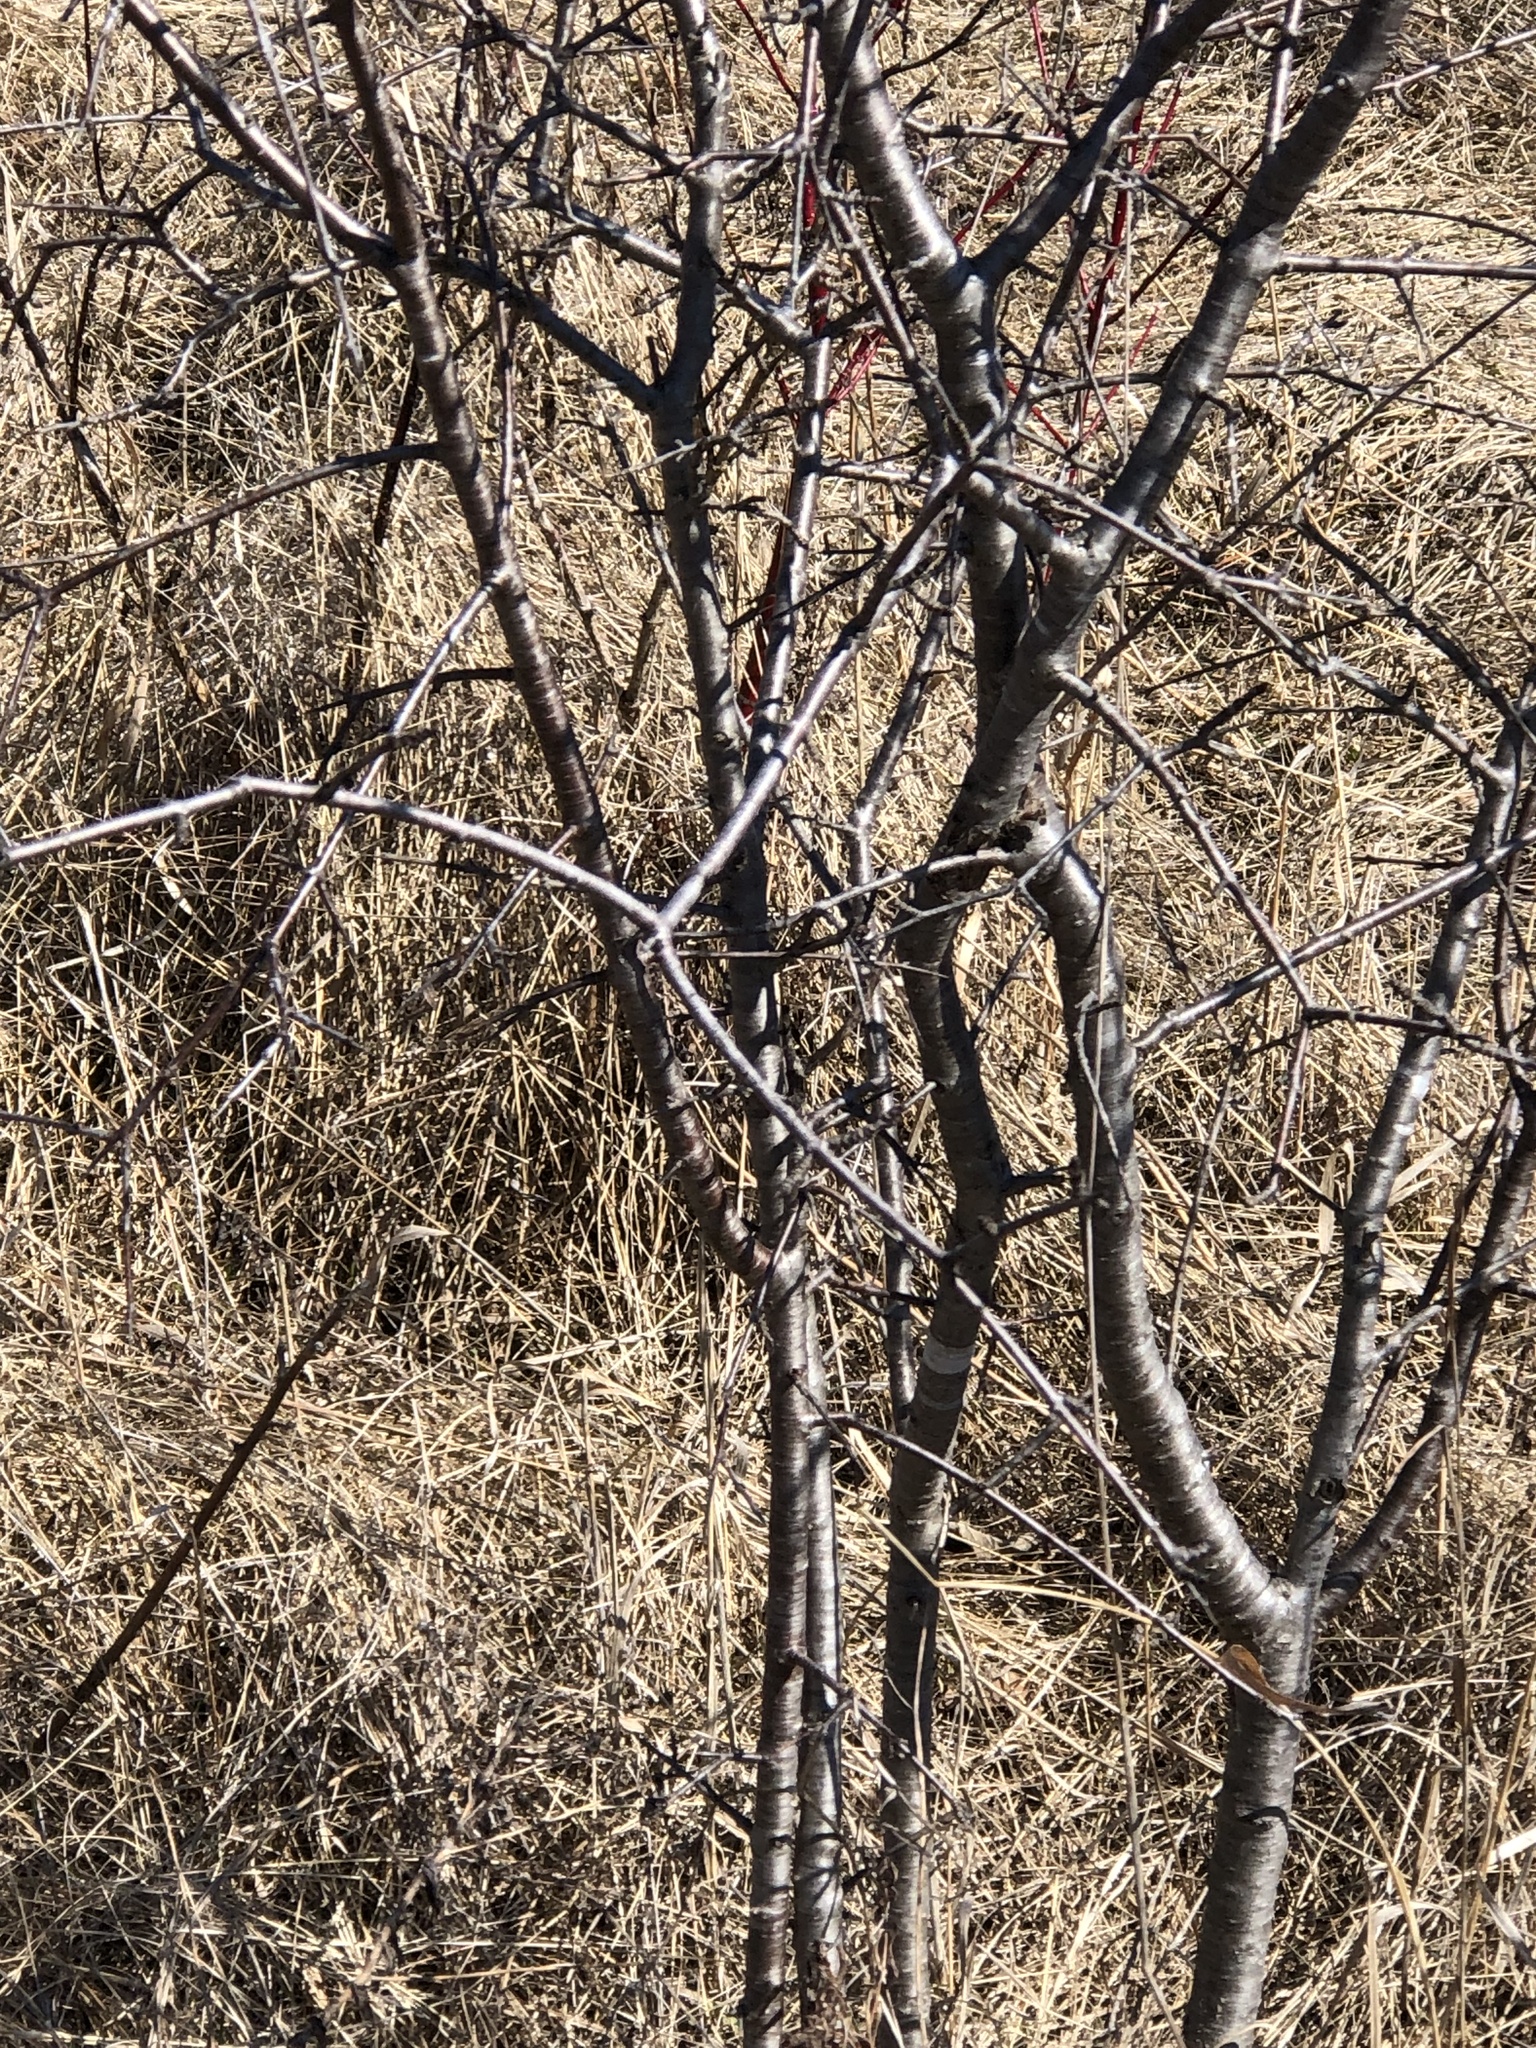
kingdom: Plantae
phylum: Tracheophyta
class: Magnoliopsida
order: Rosales
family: Rhamnaceae
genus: Rhamnus
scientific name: Rhamnus cathartica
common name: Common buckthorn
